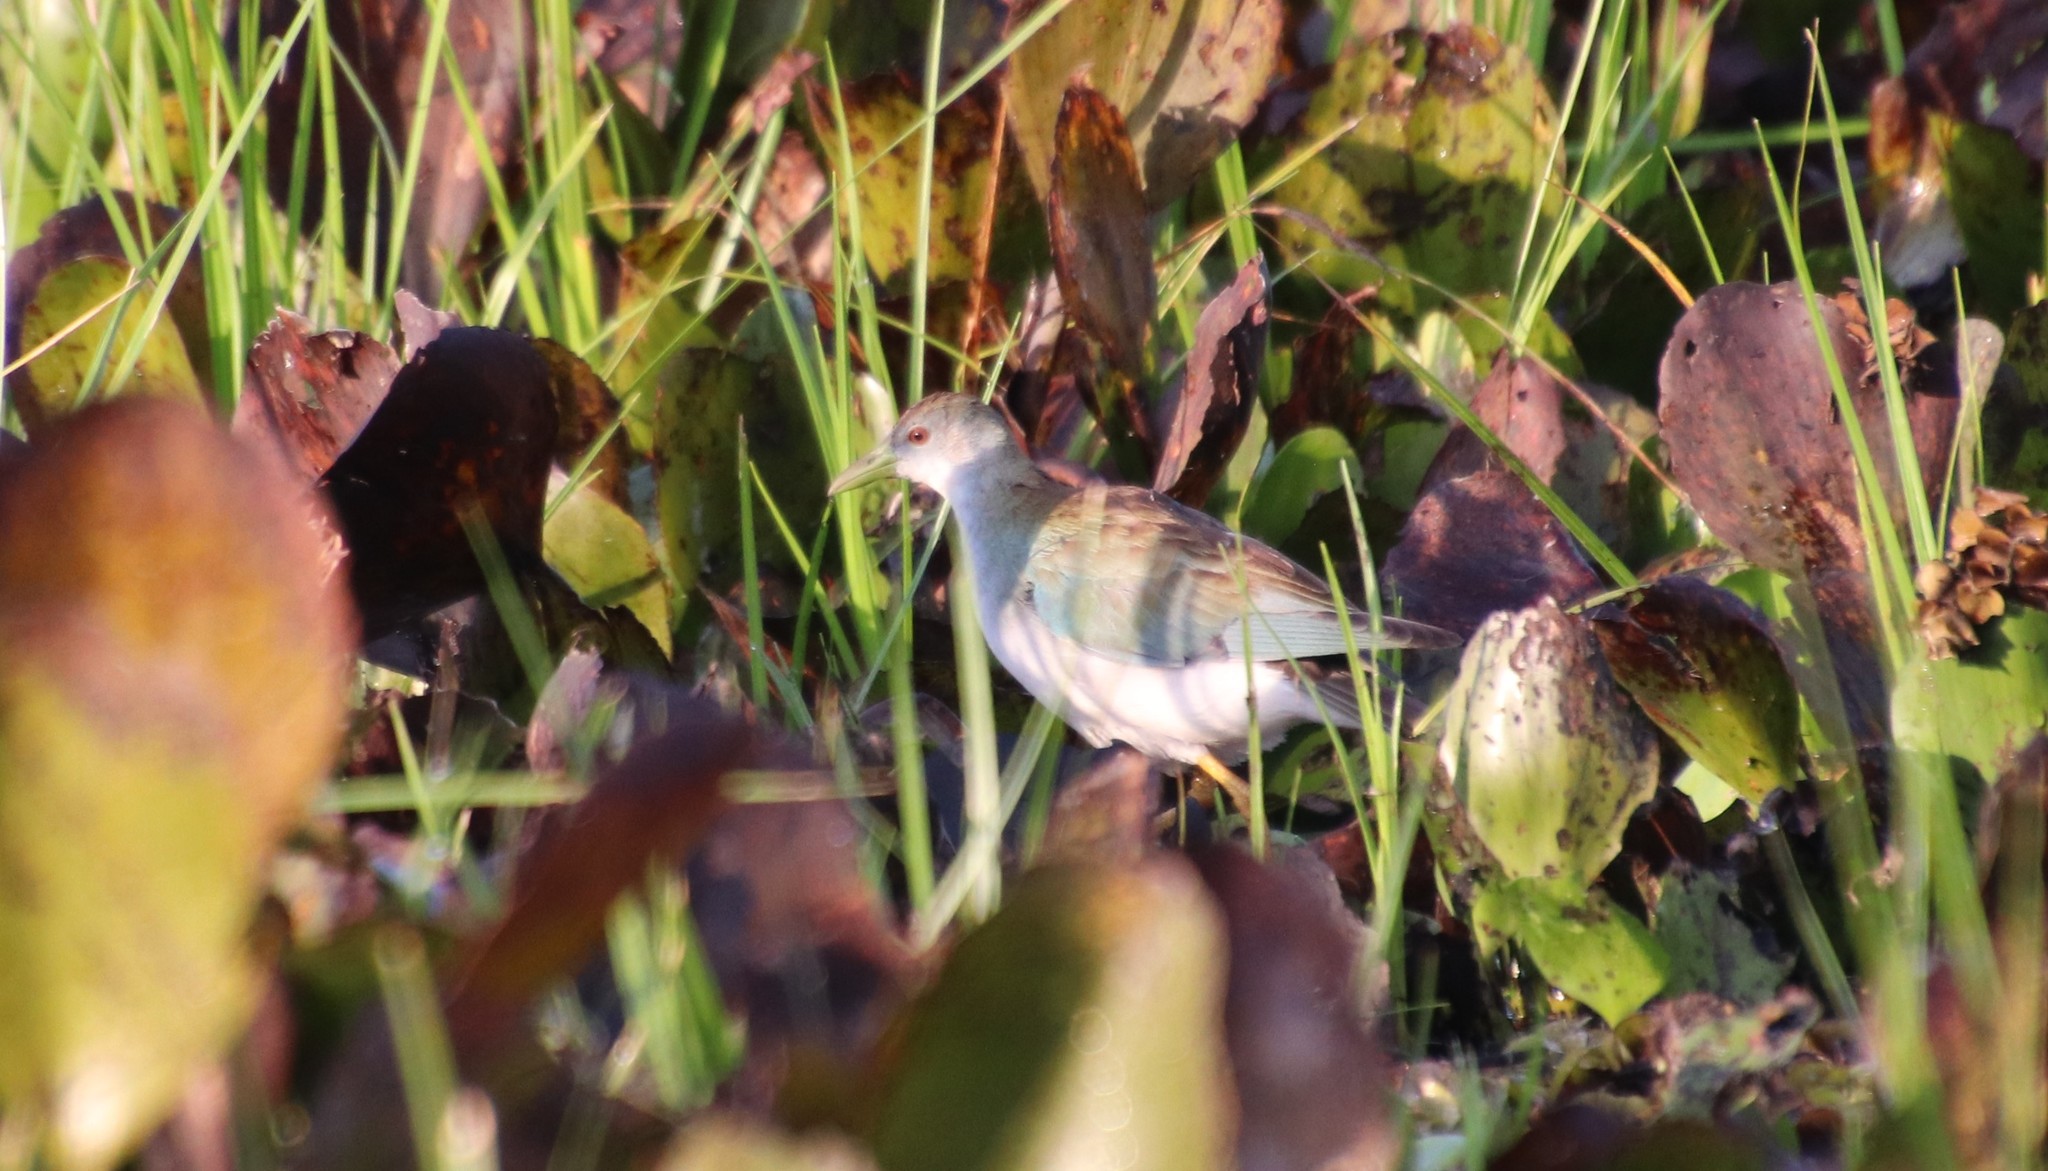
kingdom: Animalia
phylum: Chordata
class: Aves
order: Gruiformes
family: Rallidae
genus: Porphyrio
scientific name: Porphyrio flavirostris
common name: Azure gallinule
